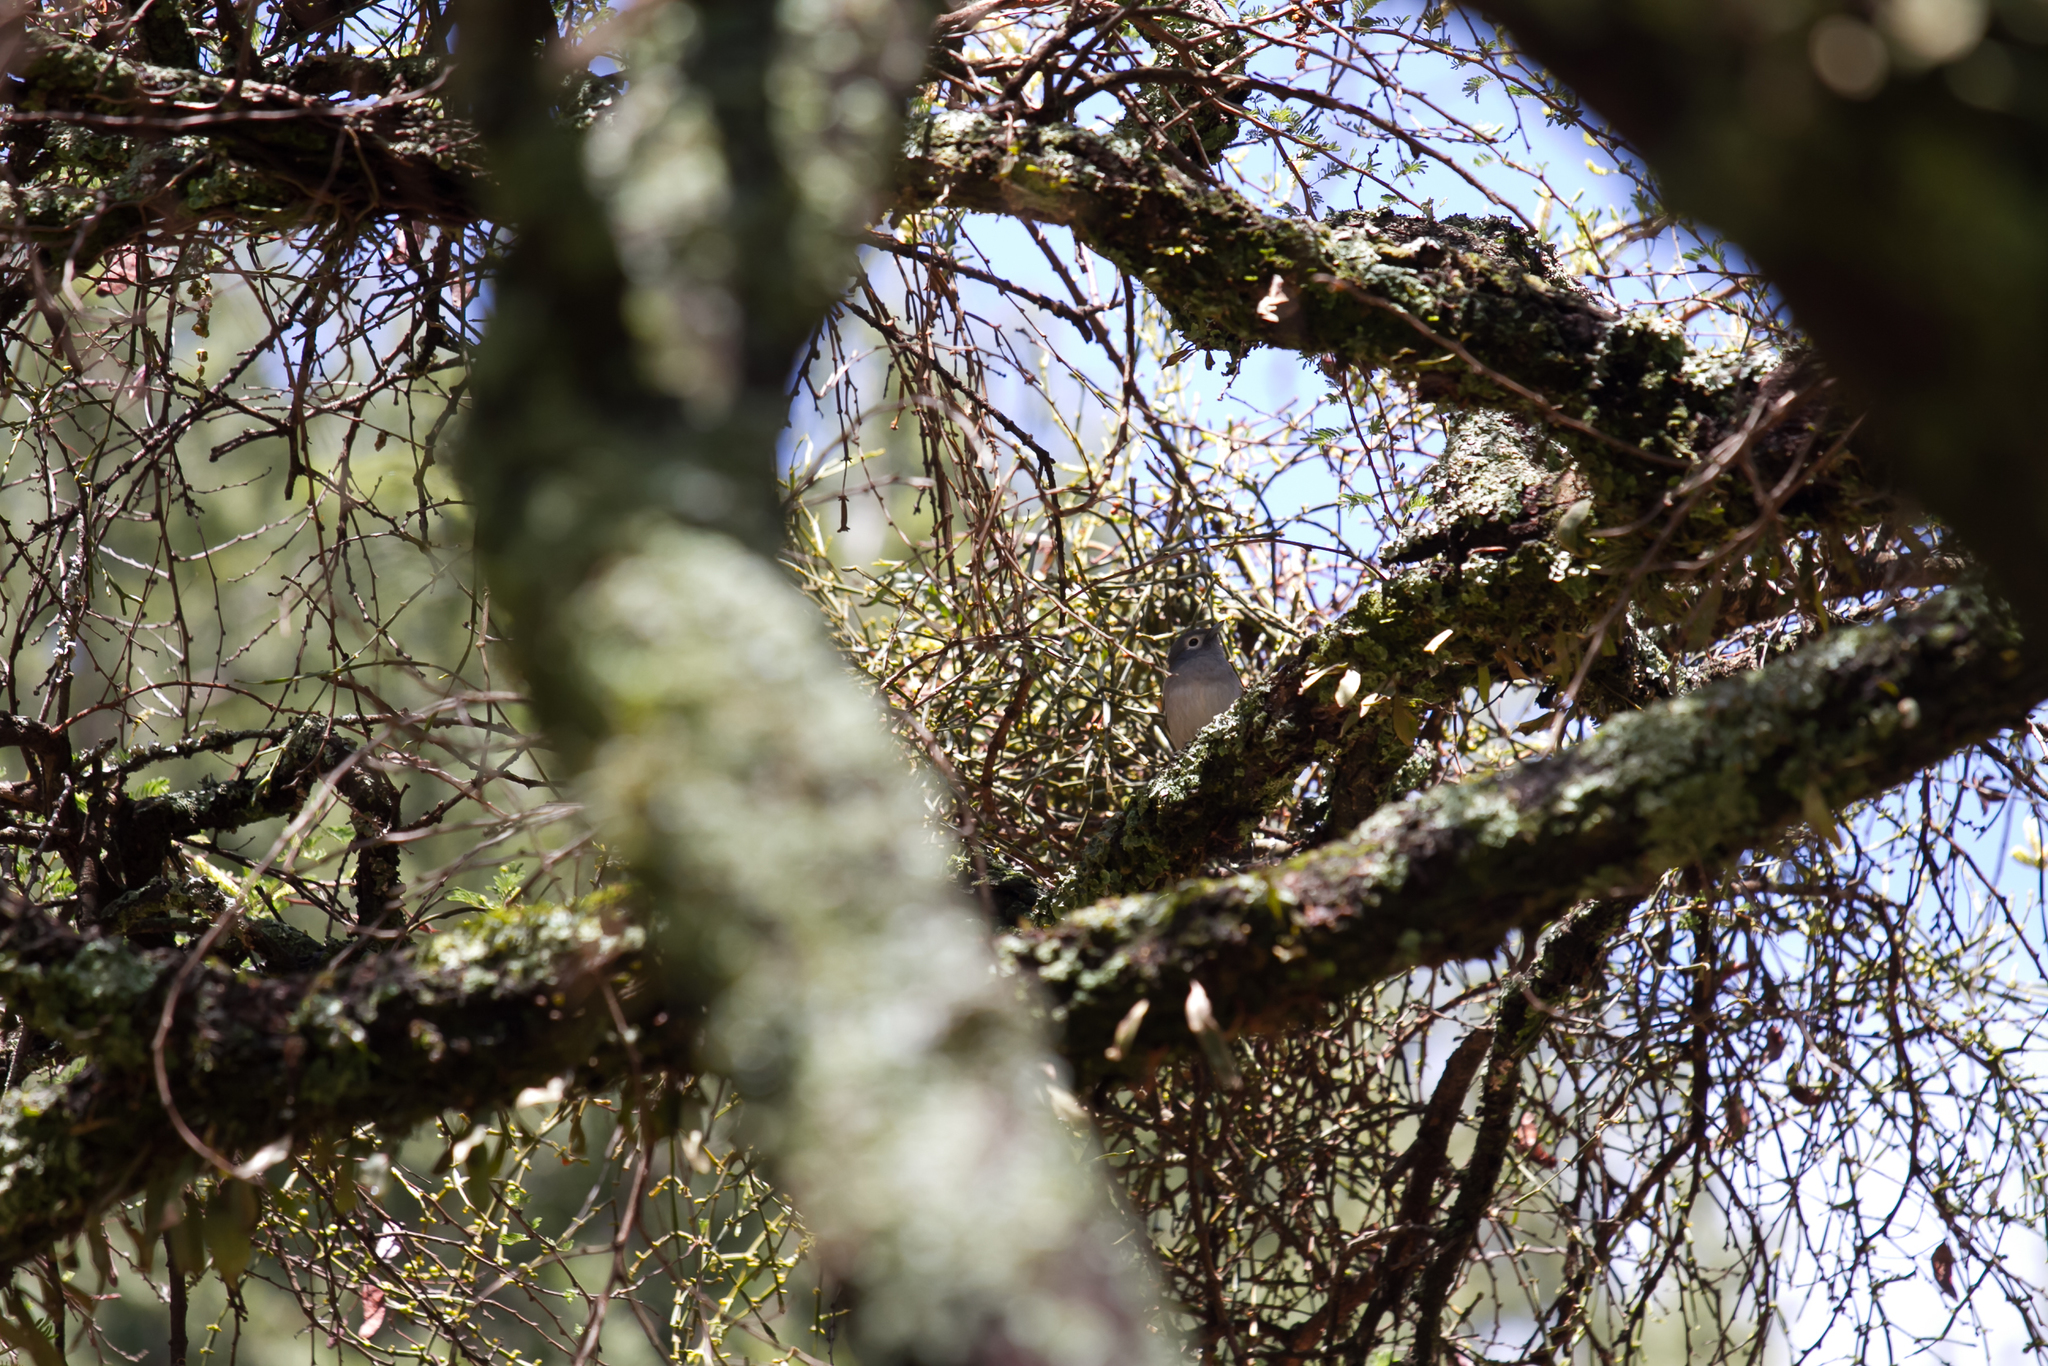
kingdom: Animalia
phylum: Chordata
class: Aves
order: Passeriformes
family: Muscicapidae
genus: Dioptrornis
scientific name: Dioptrornis fischeri
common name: White-eyed slaty flycatcher
